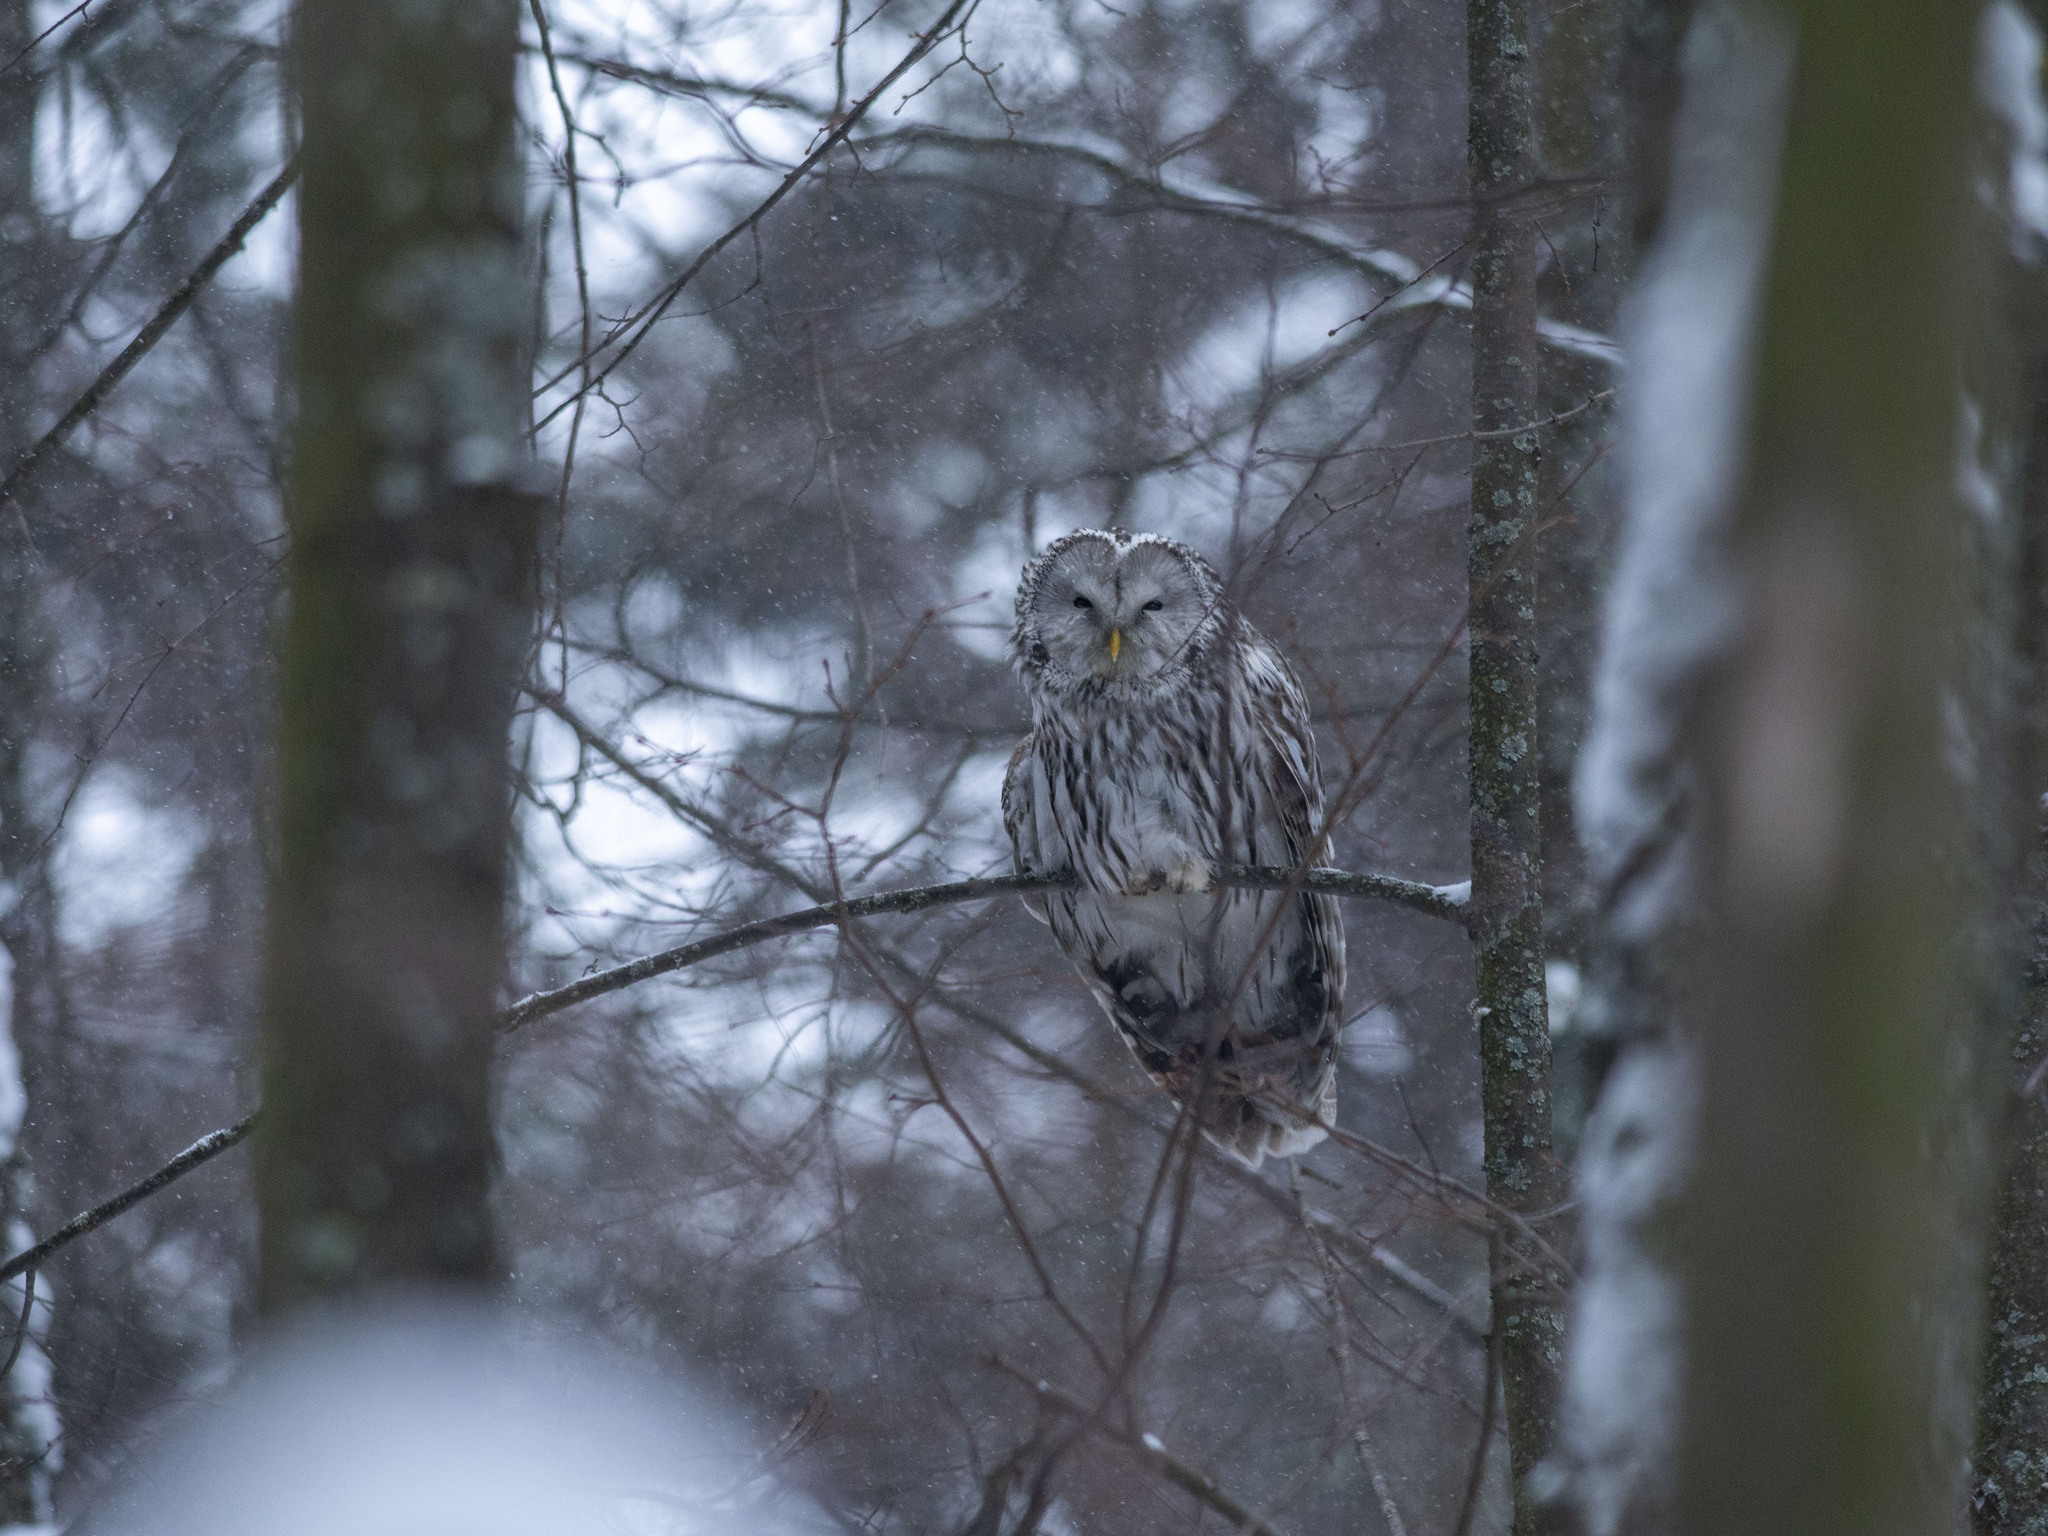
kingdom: Animalia
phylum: Chordata
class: Aves
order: Strigiformes
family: Strigidae
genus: Strix
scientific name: Strix uralensis
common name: Ural owl
